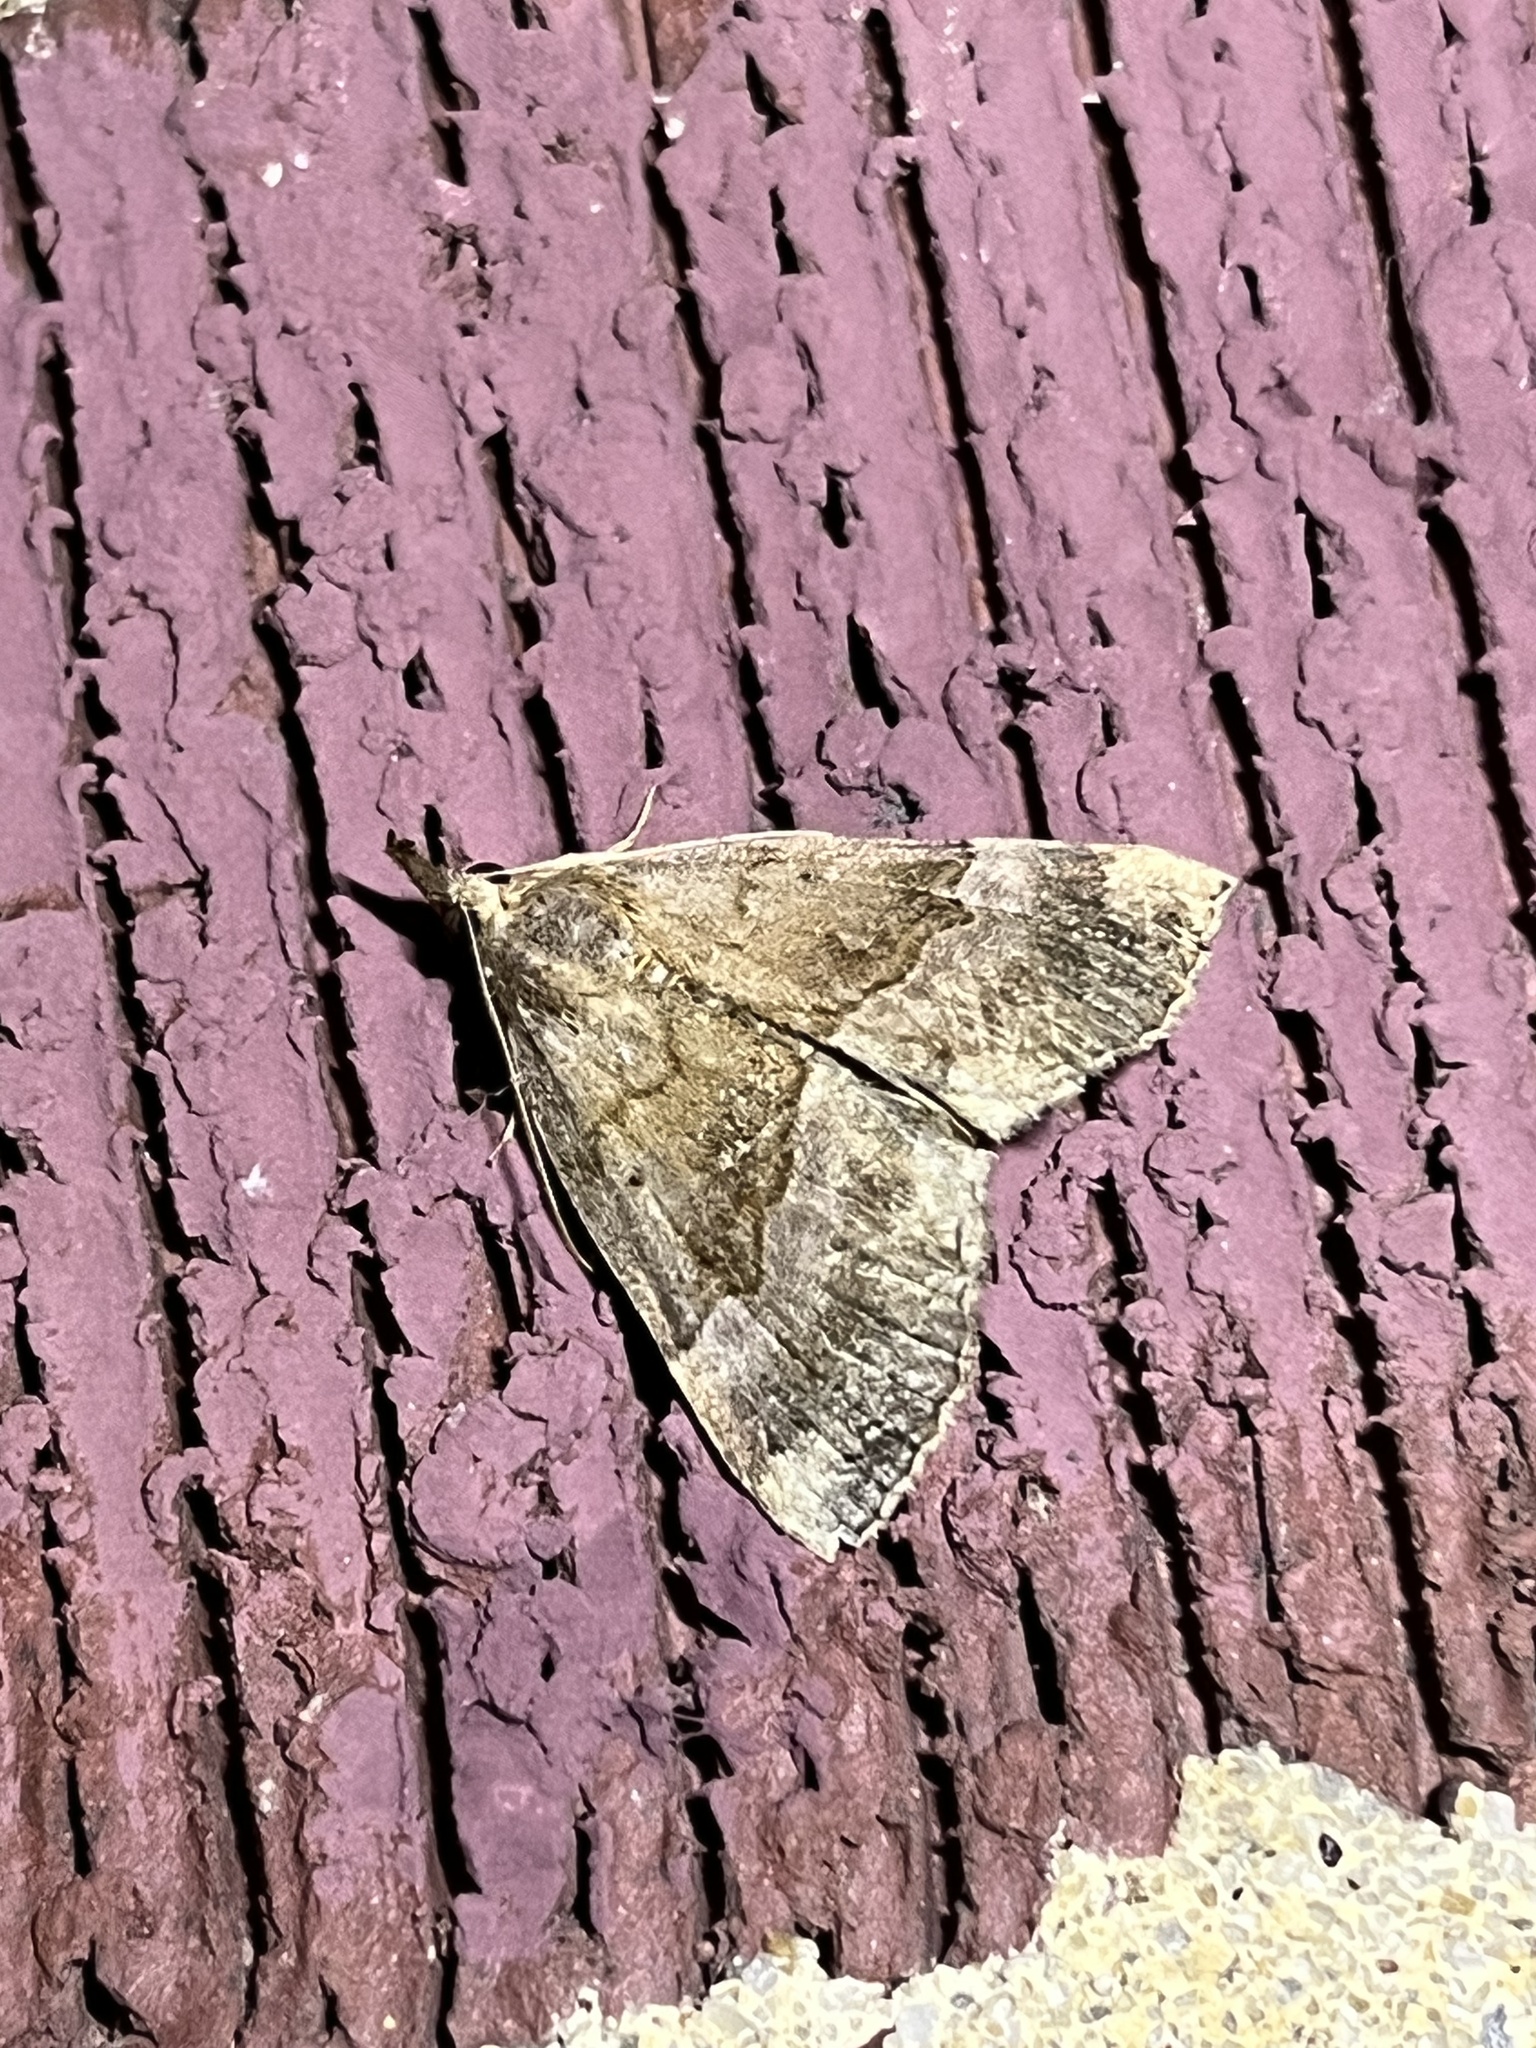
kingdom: Animalia
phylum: Arthropoda
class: Insecta
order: Lepidoptera
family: Erebidae
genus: Hypena
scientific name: Hypena madefactalis
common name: Gray-edged snout
